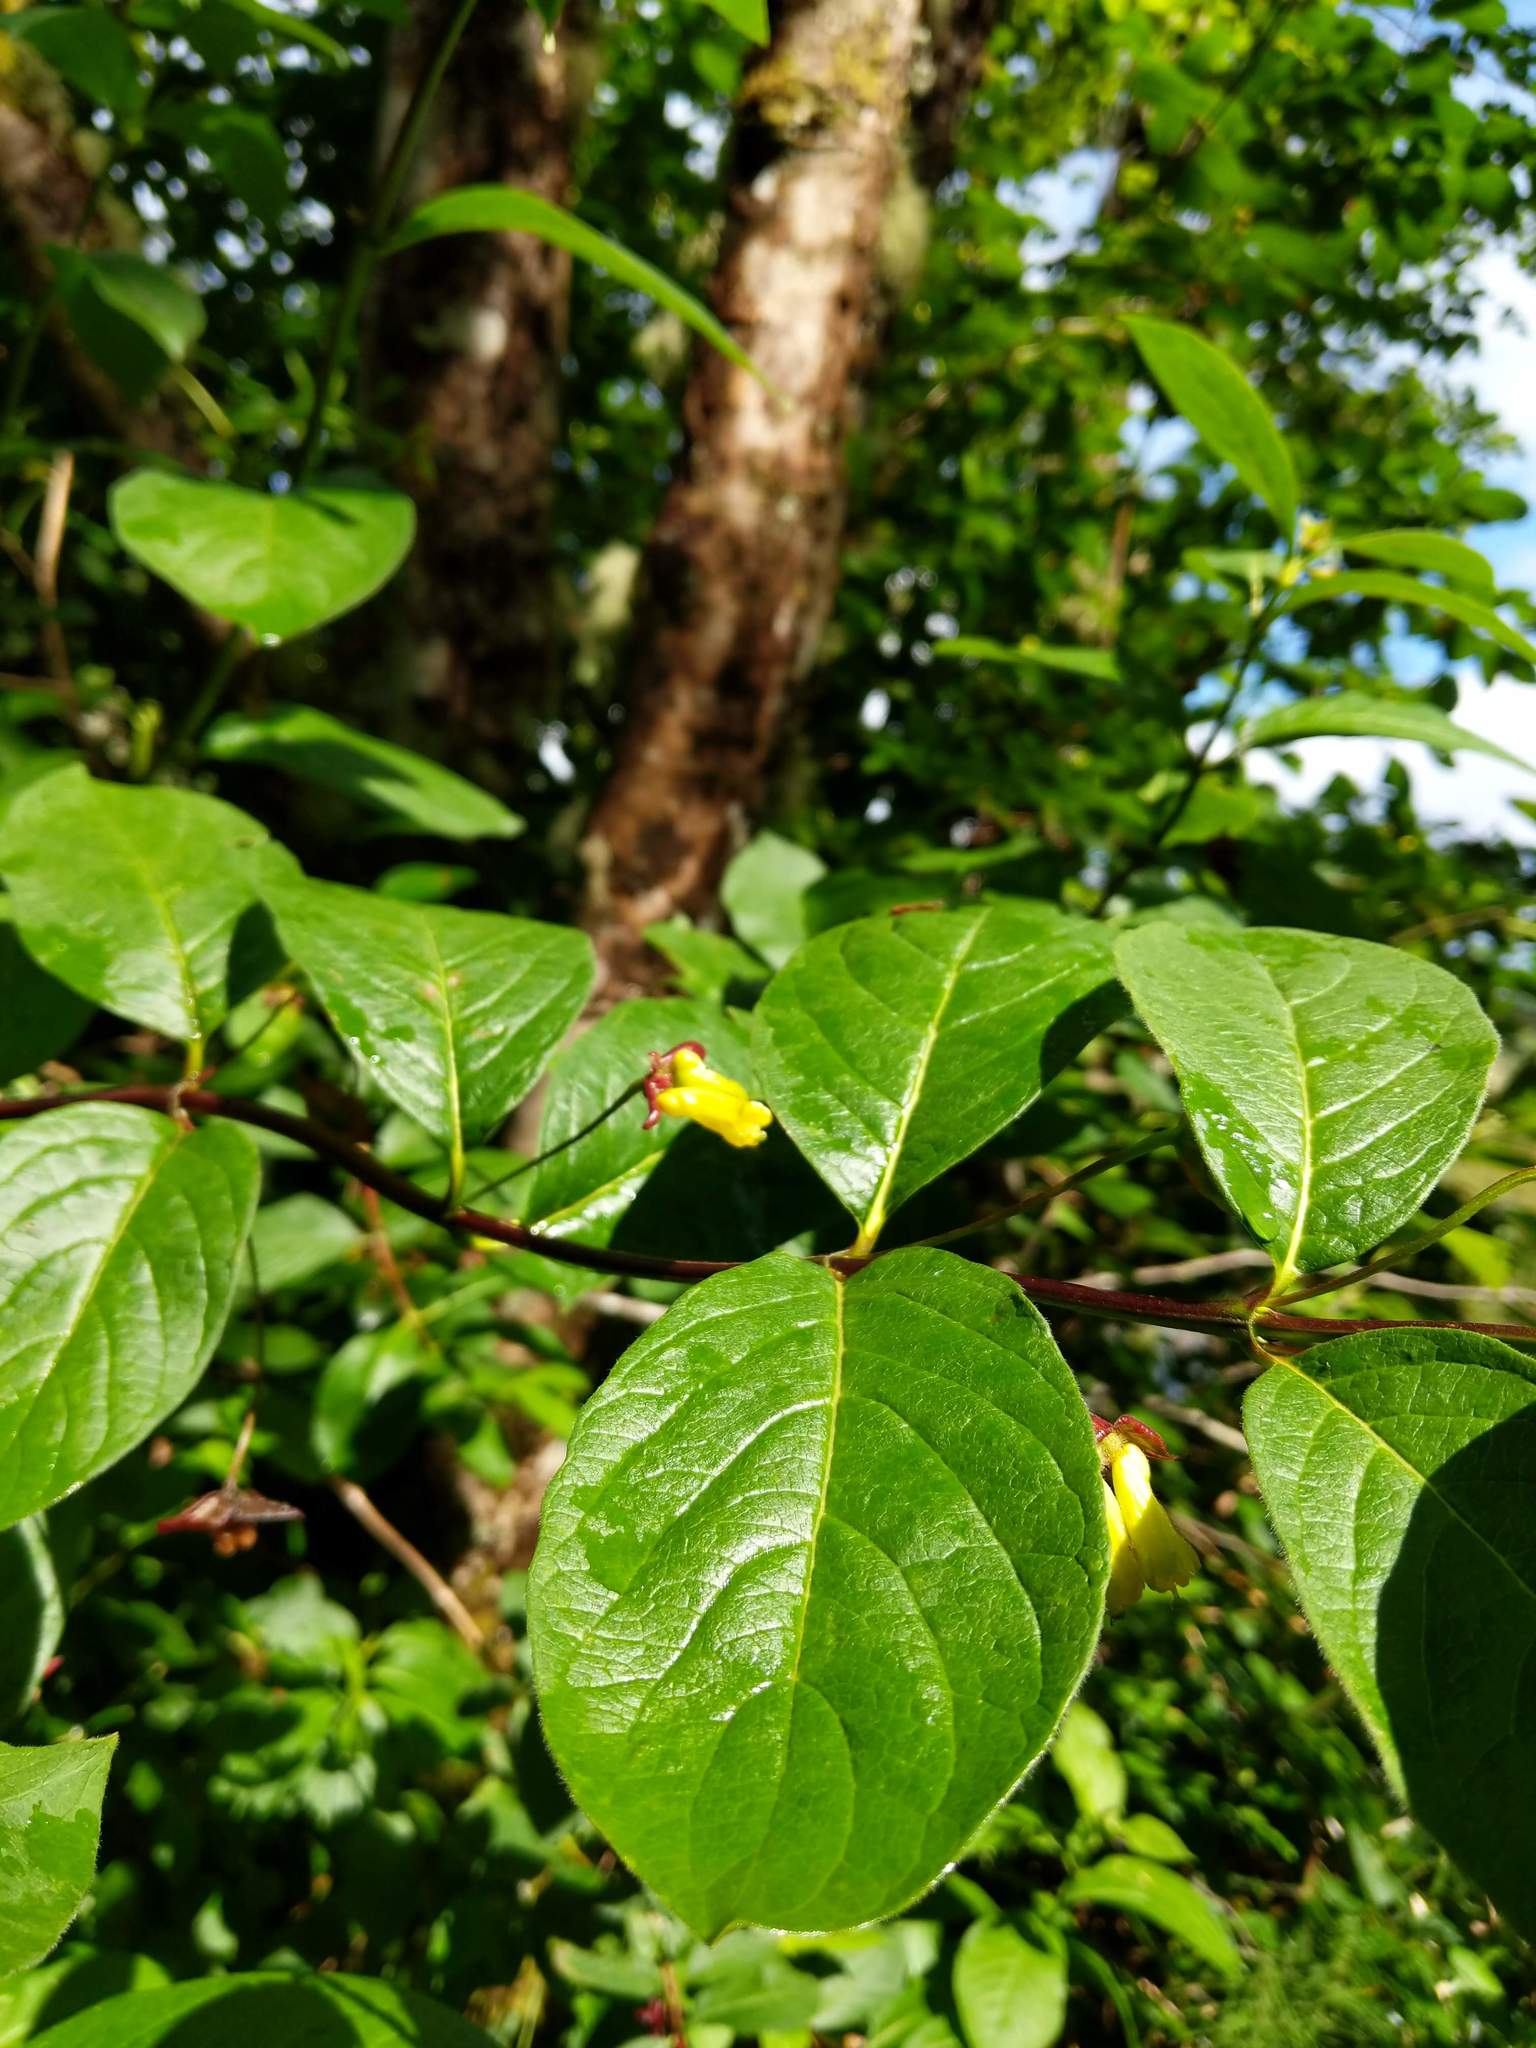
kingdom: Plantae
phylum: Tracheophyta
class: Magnoliopsida
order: Dipsacales
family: Caprifoliaceae
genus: Lonicera
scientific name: Lonicera involucrata
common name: Californian honeysuckle
